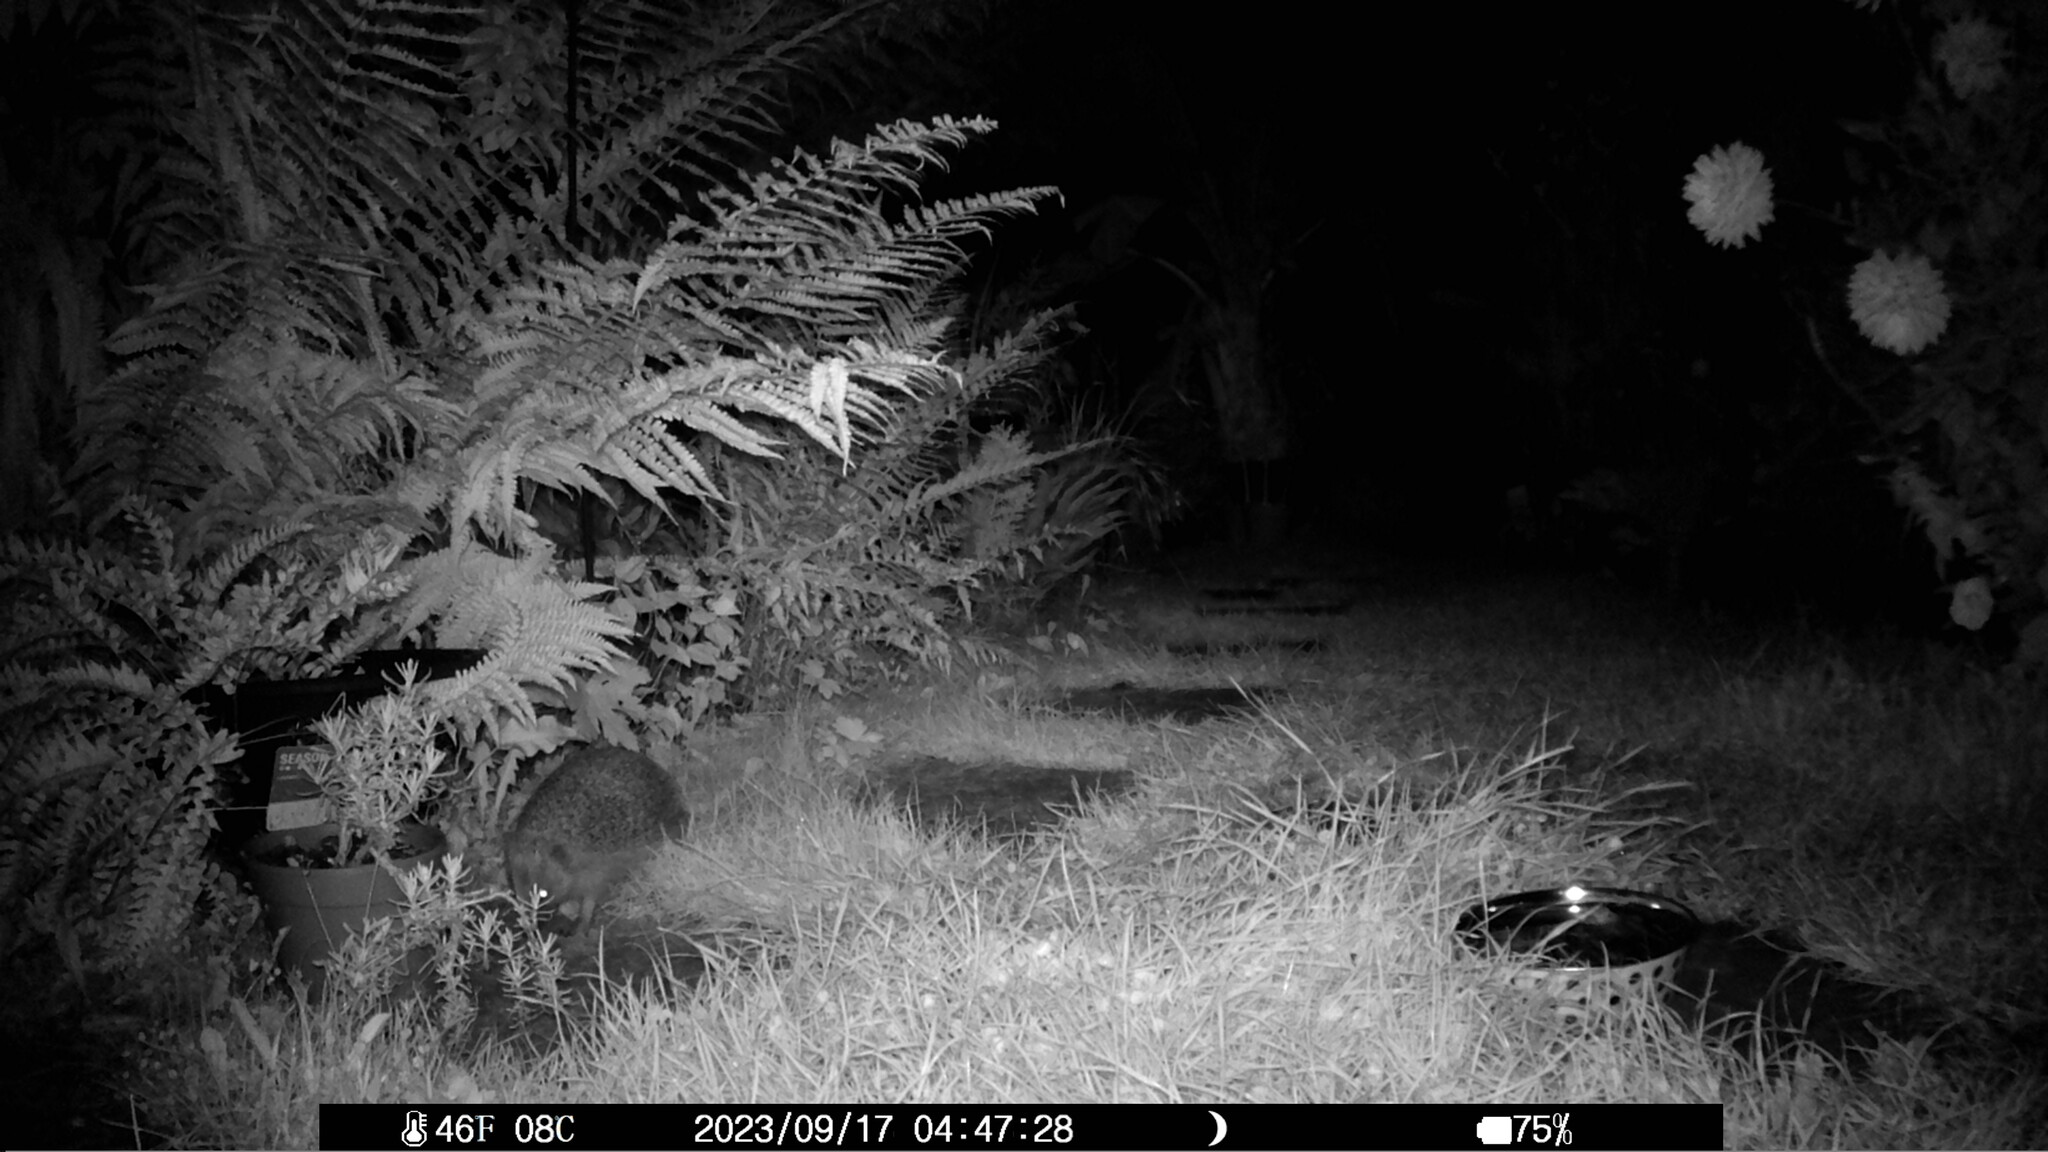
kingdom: Animalia
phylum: Chordata
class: Mammalia
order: Erinaceomorpha
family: Erinaceidae
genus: Erinaceus
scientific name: Erinaceus europaeus
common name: West european hedgehog
